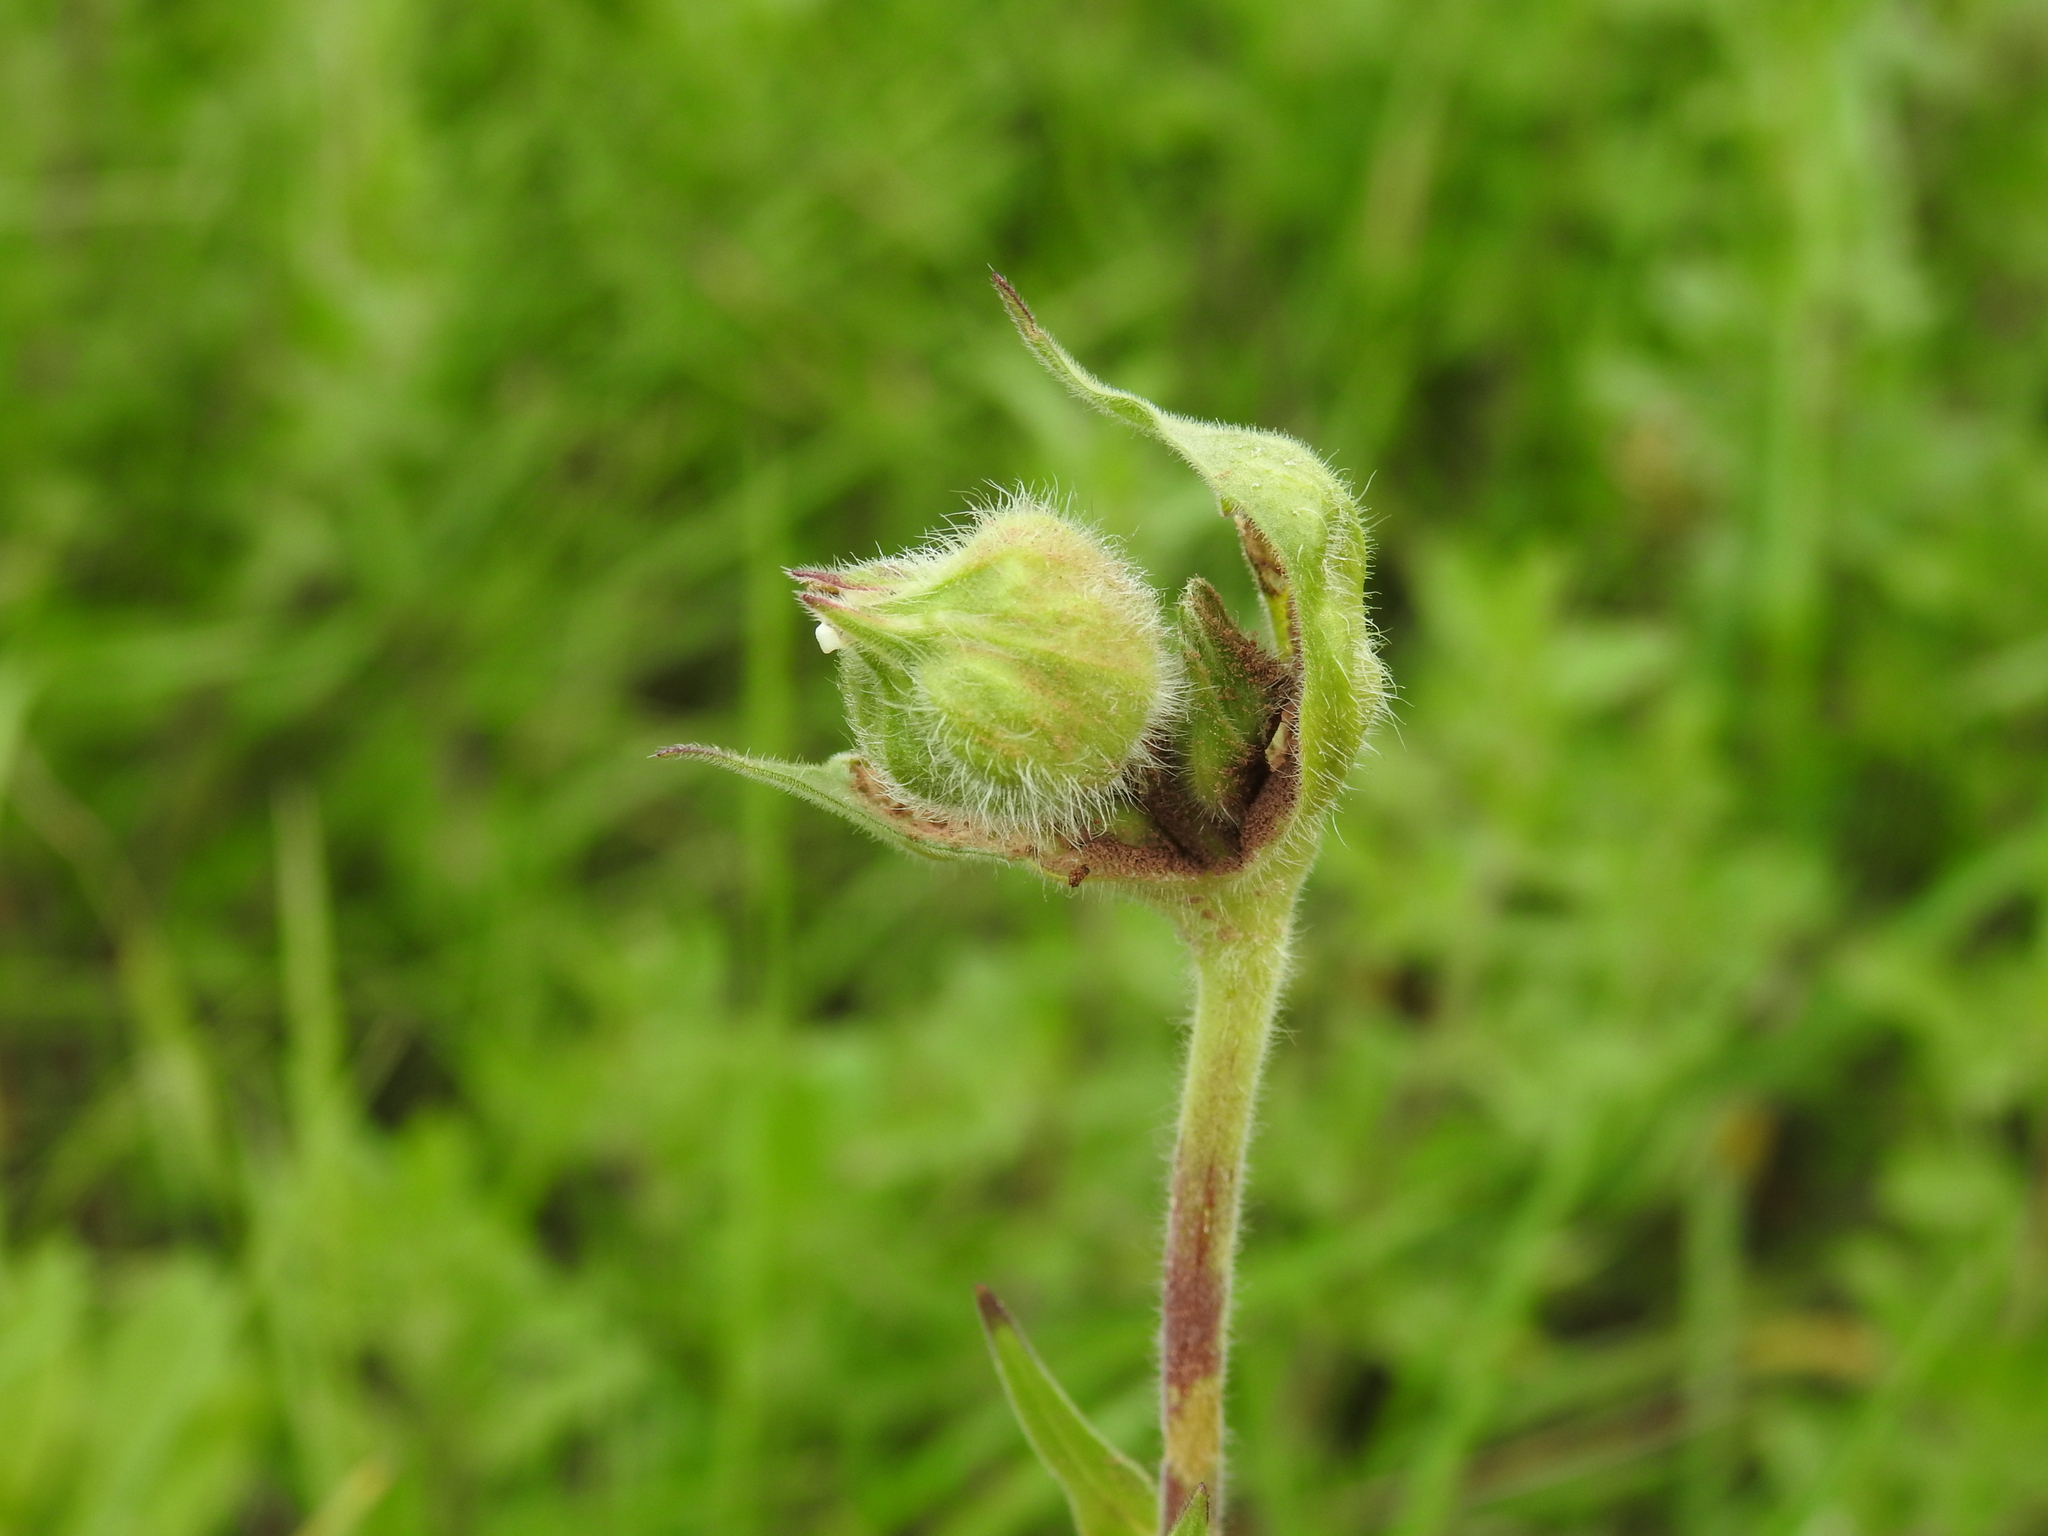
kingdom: Fungi
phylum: Basidiomycota
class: Ustilaginomycetes
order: Urocystidales
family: Glomosporiaceae
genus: Thecaphora
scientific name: Thecaphora melandrii
